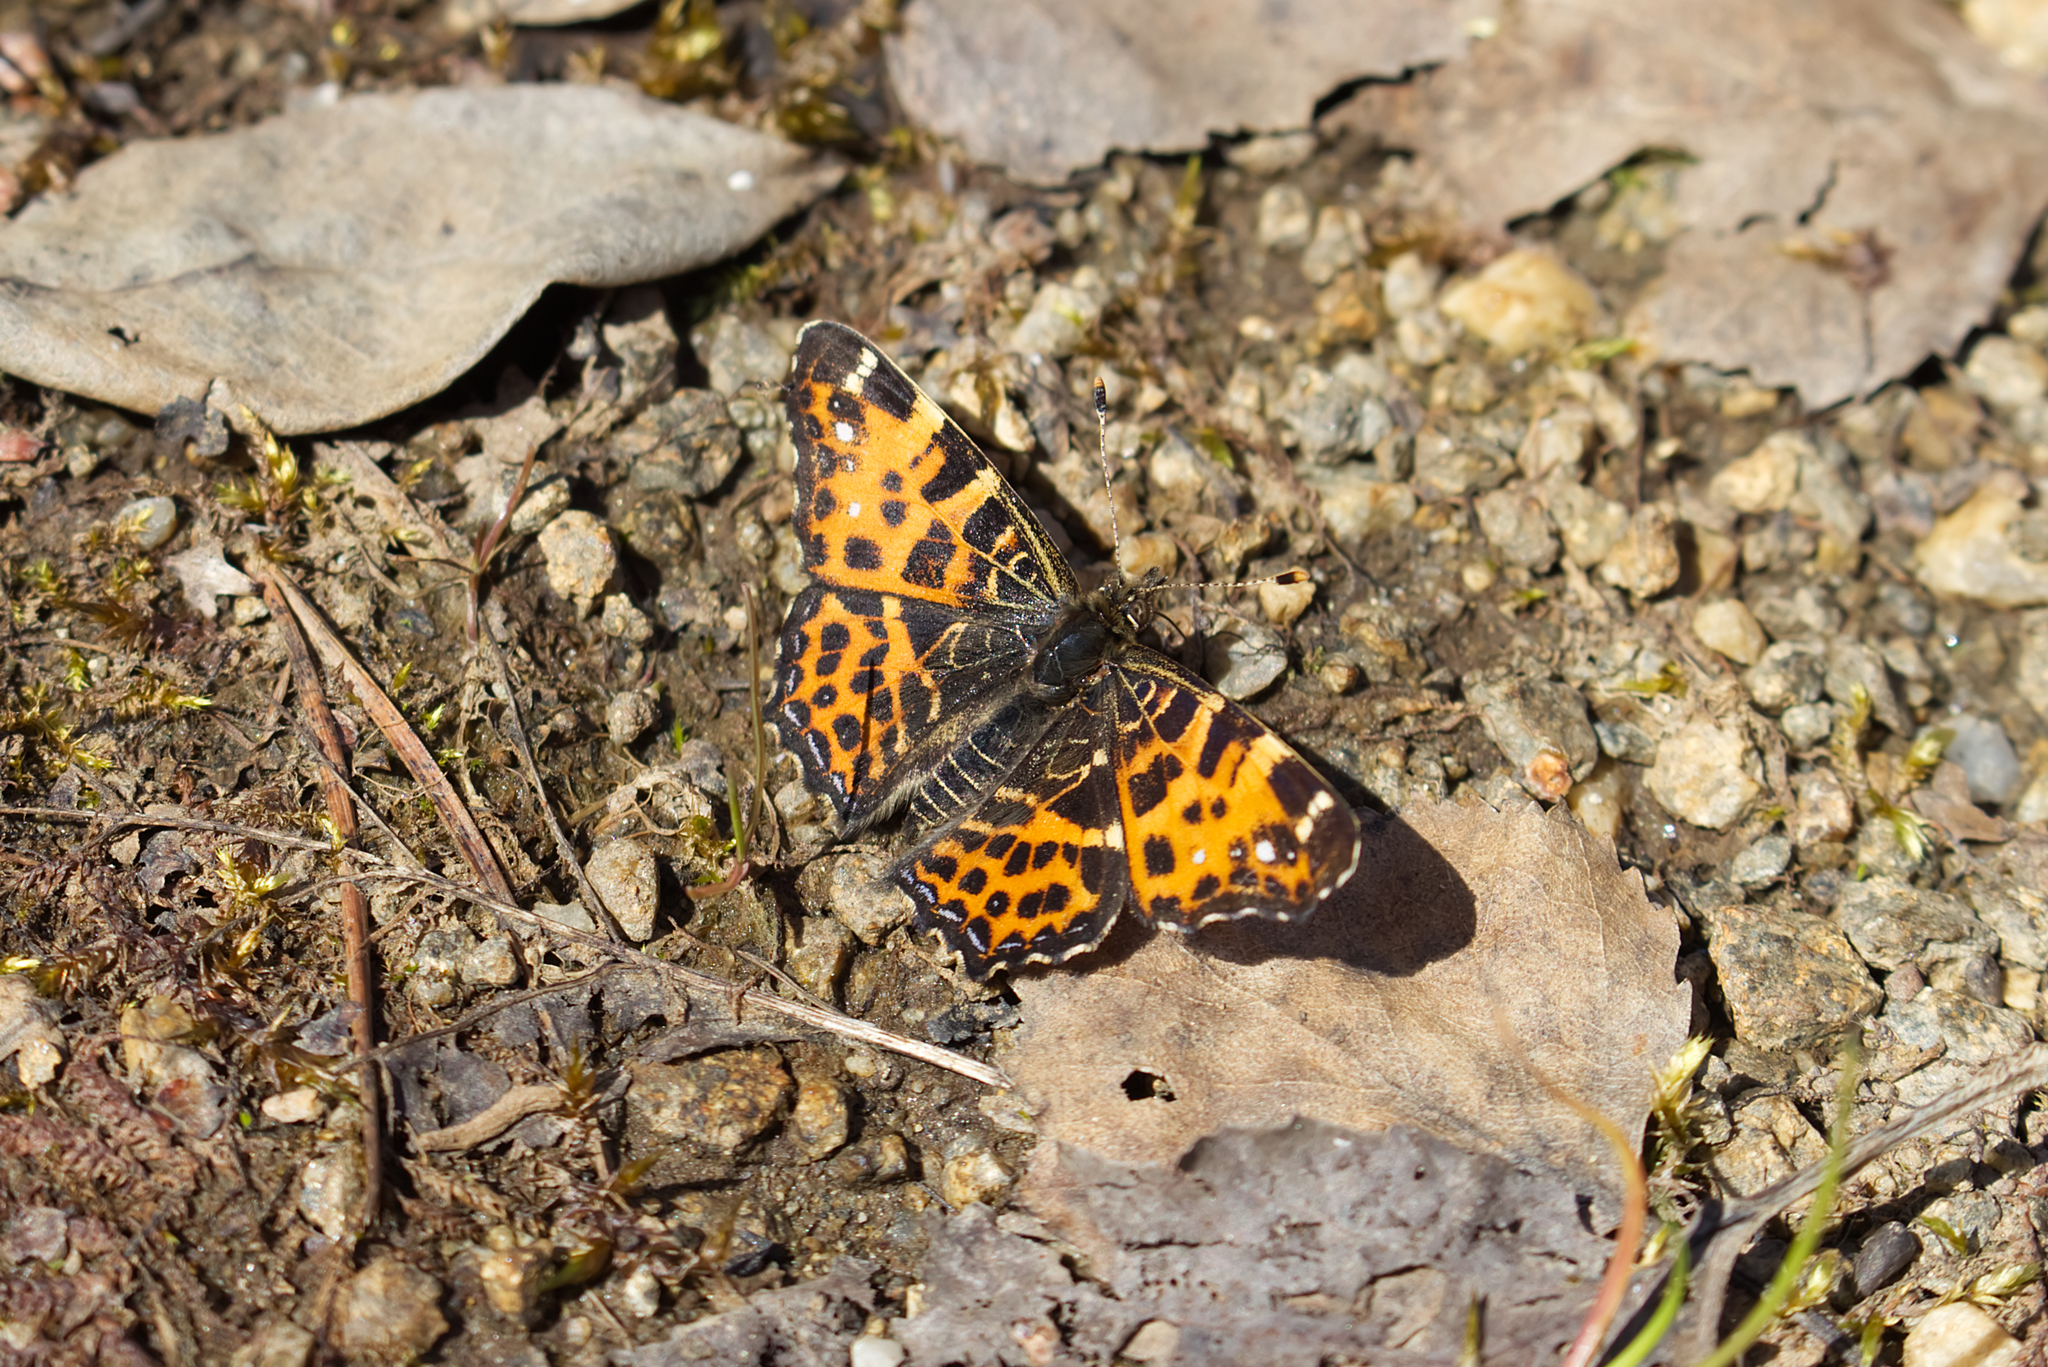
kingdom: Animalia
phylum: Arthropoda
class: Insecta
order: Lepidoptera
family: Nymphalidae
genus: Araschnia
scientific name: Araschnia levana
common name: Map butterfly
